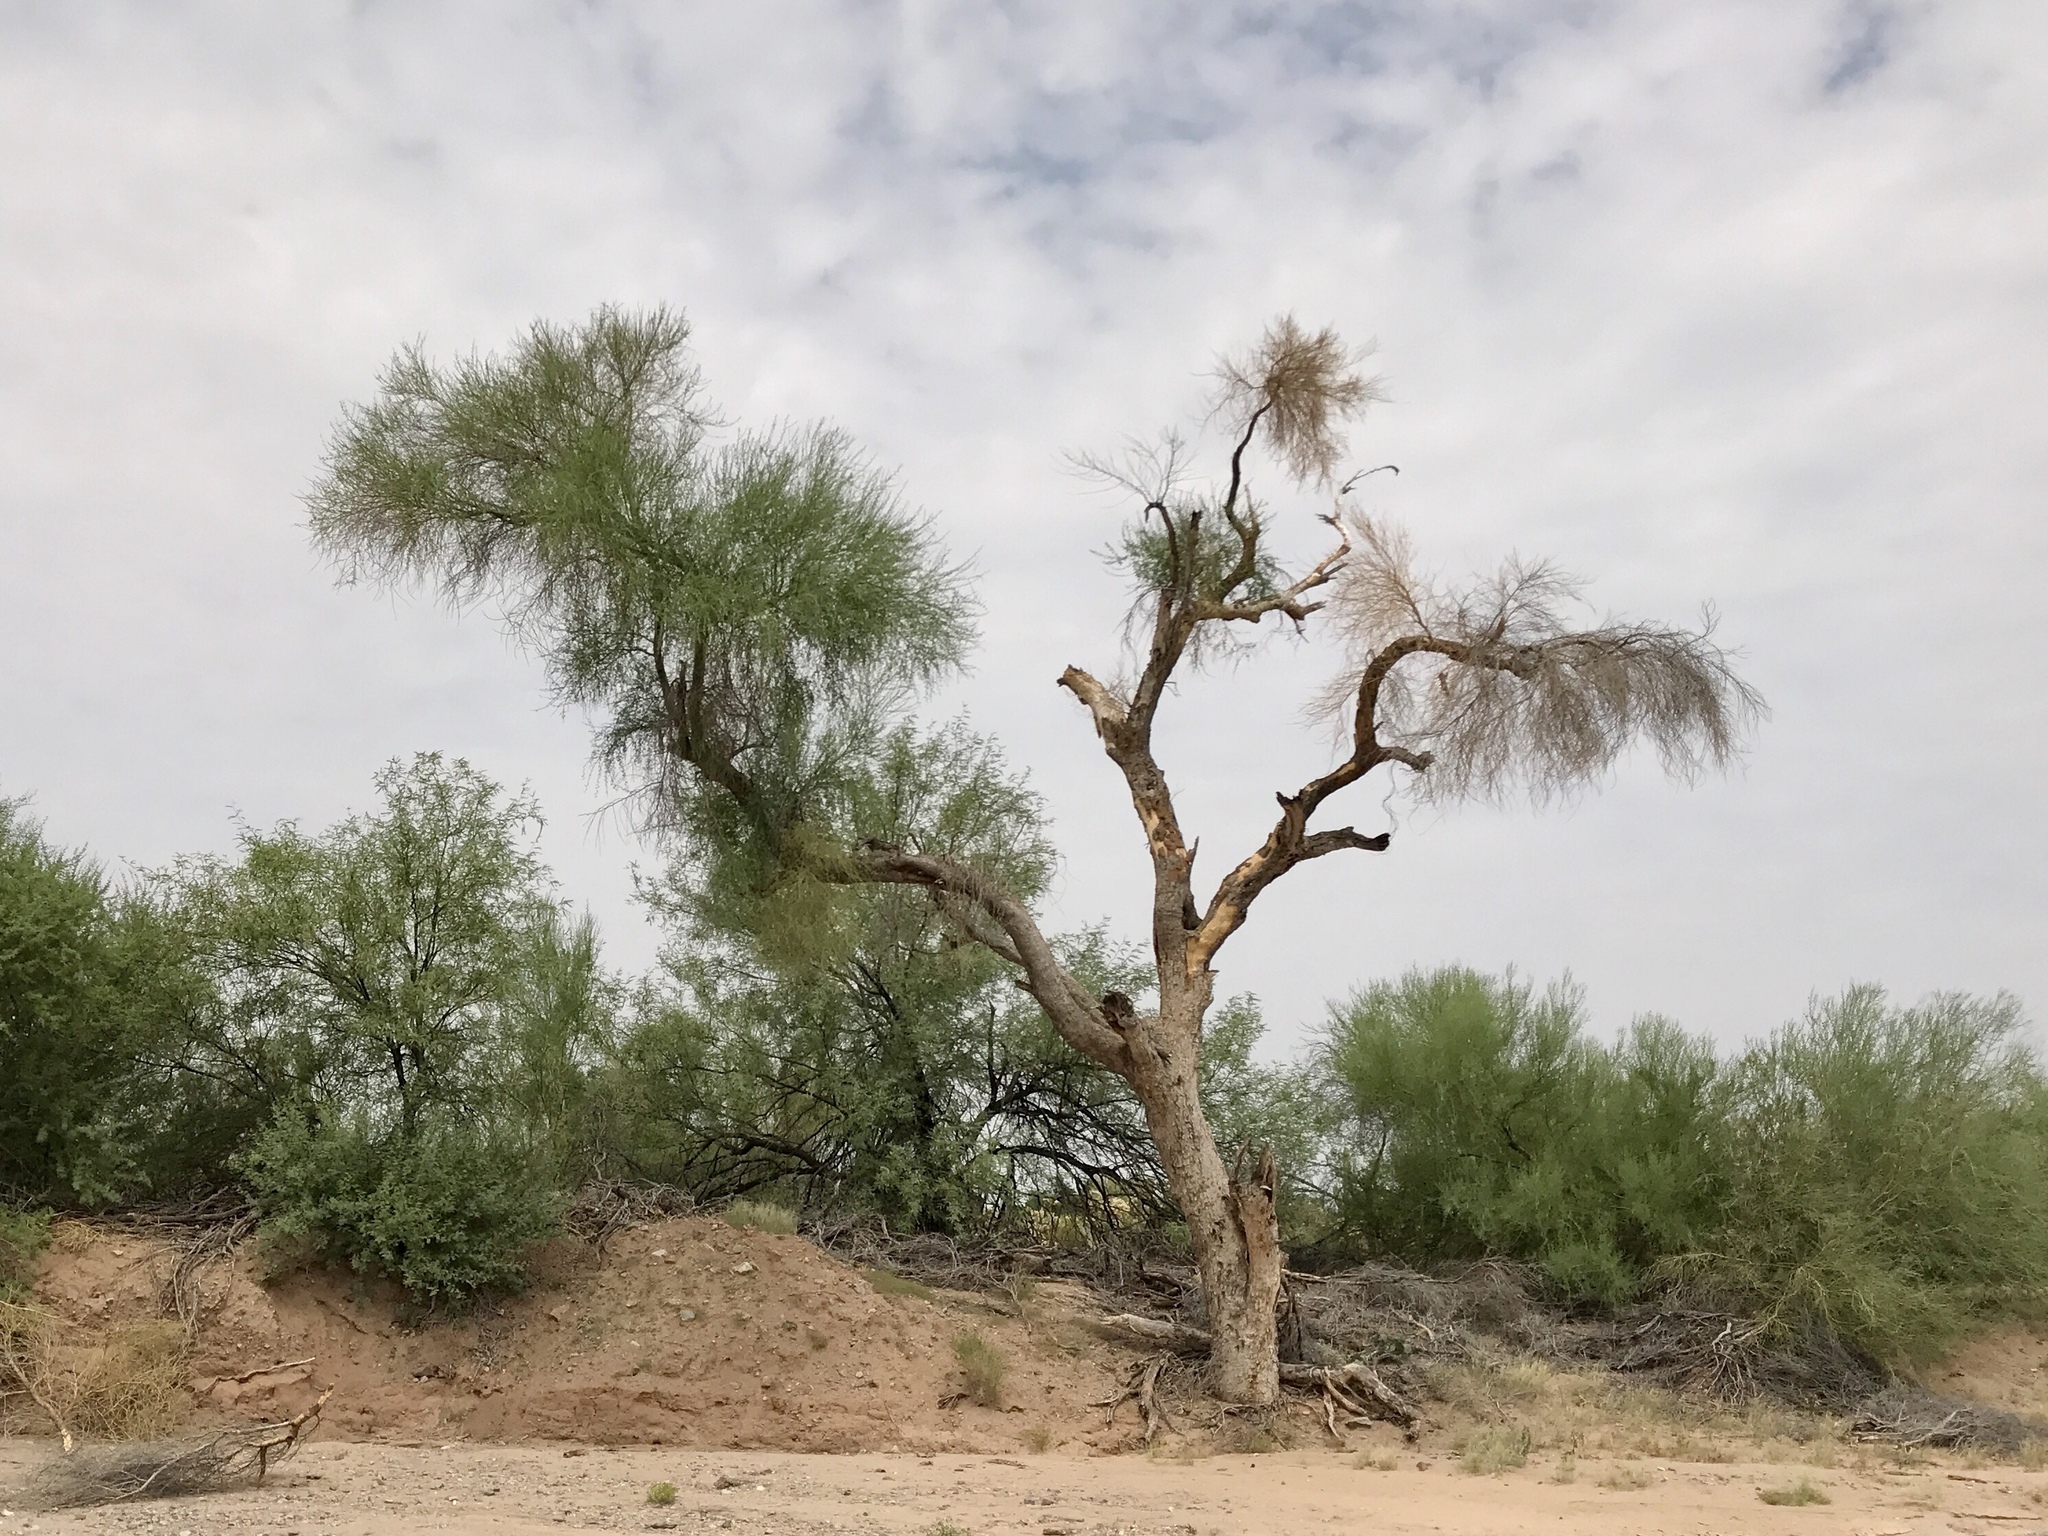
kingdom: Plantae
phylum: Tracheophyta
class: Magnoliopsida
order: Fabales
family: Fabaceae
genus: Parkinsonia
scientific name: Parkinsonia florida
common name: Blue paloverde
